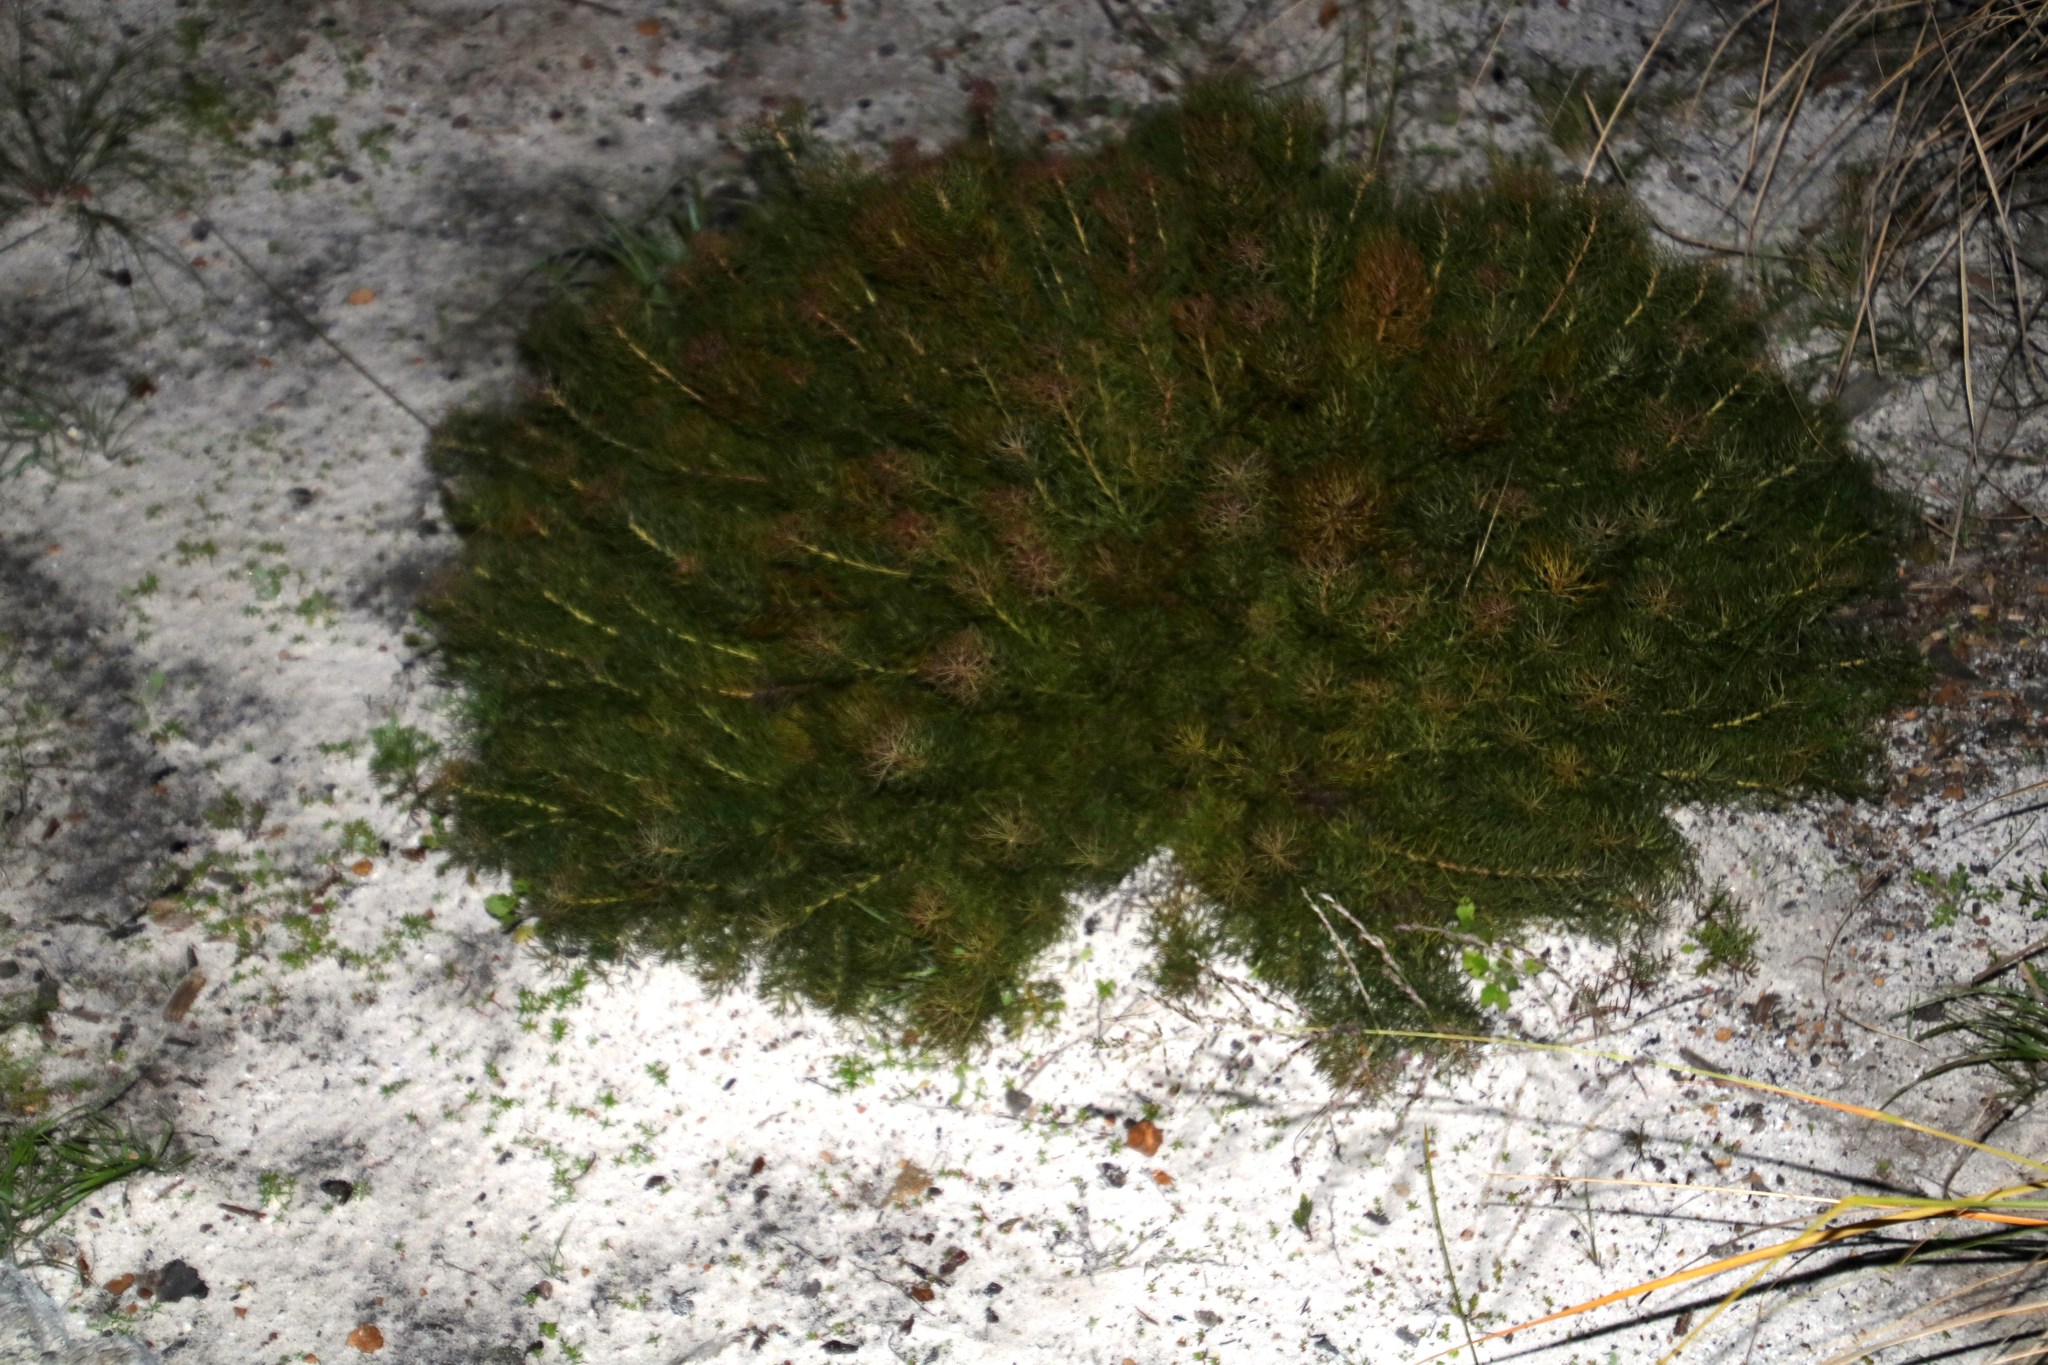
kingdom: Plantae
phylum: Tracheophyta
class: Magnoliopsida
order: Proteales
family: Proteaceae
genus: Serruria
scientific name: Serruria cyanoides
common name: Wynberg spiderhead
